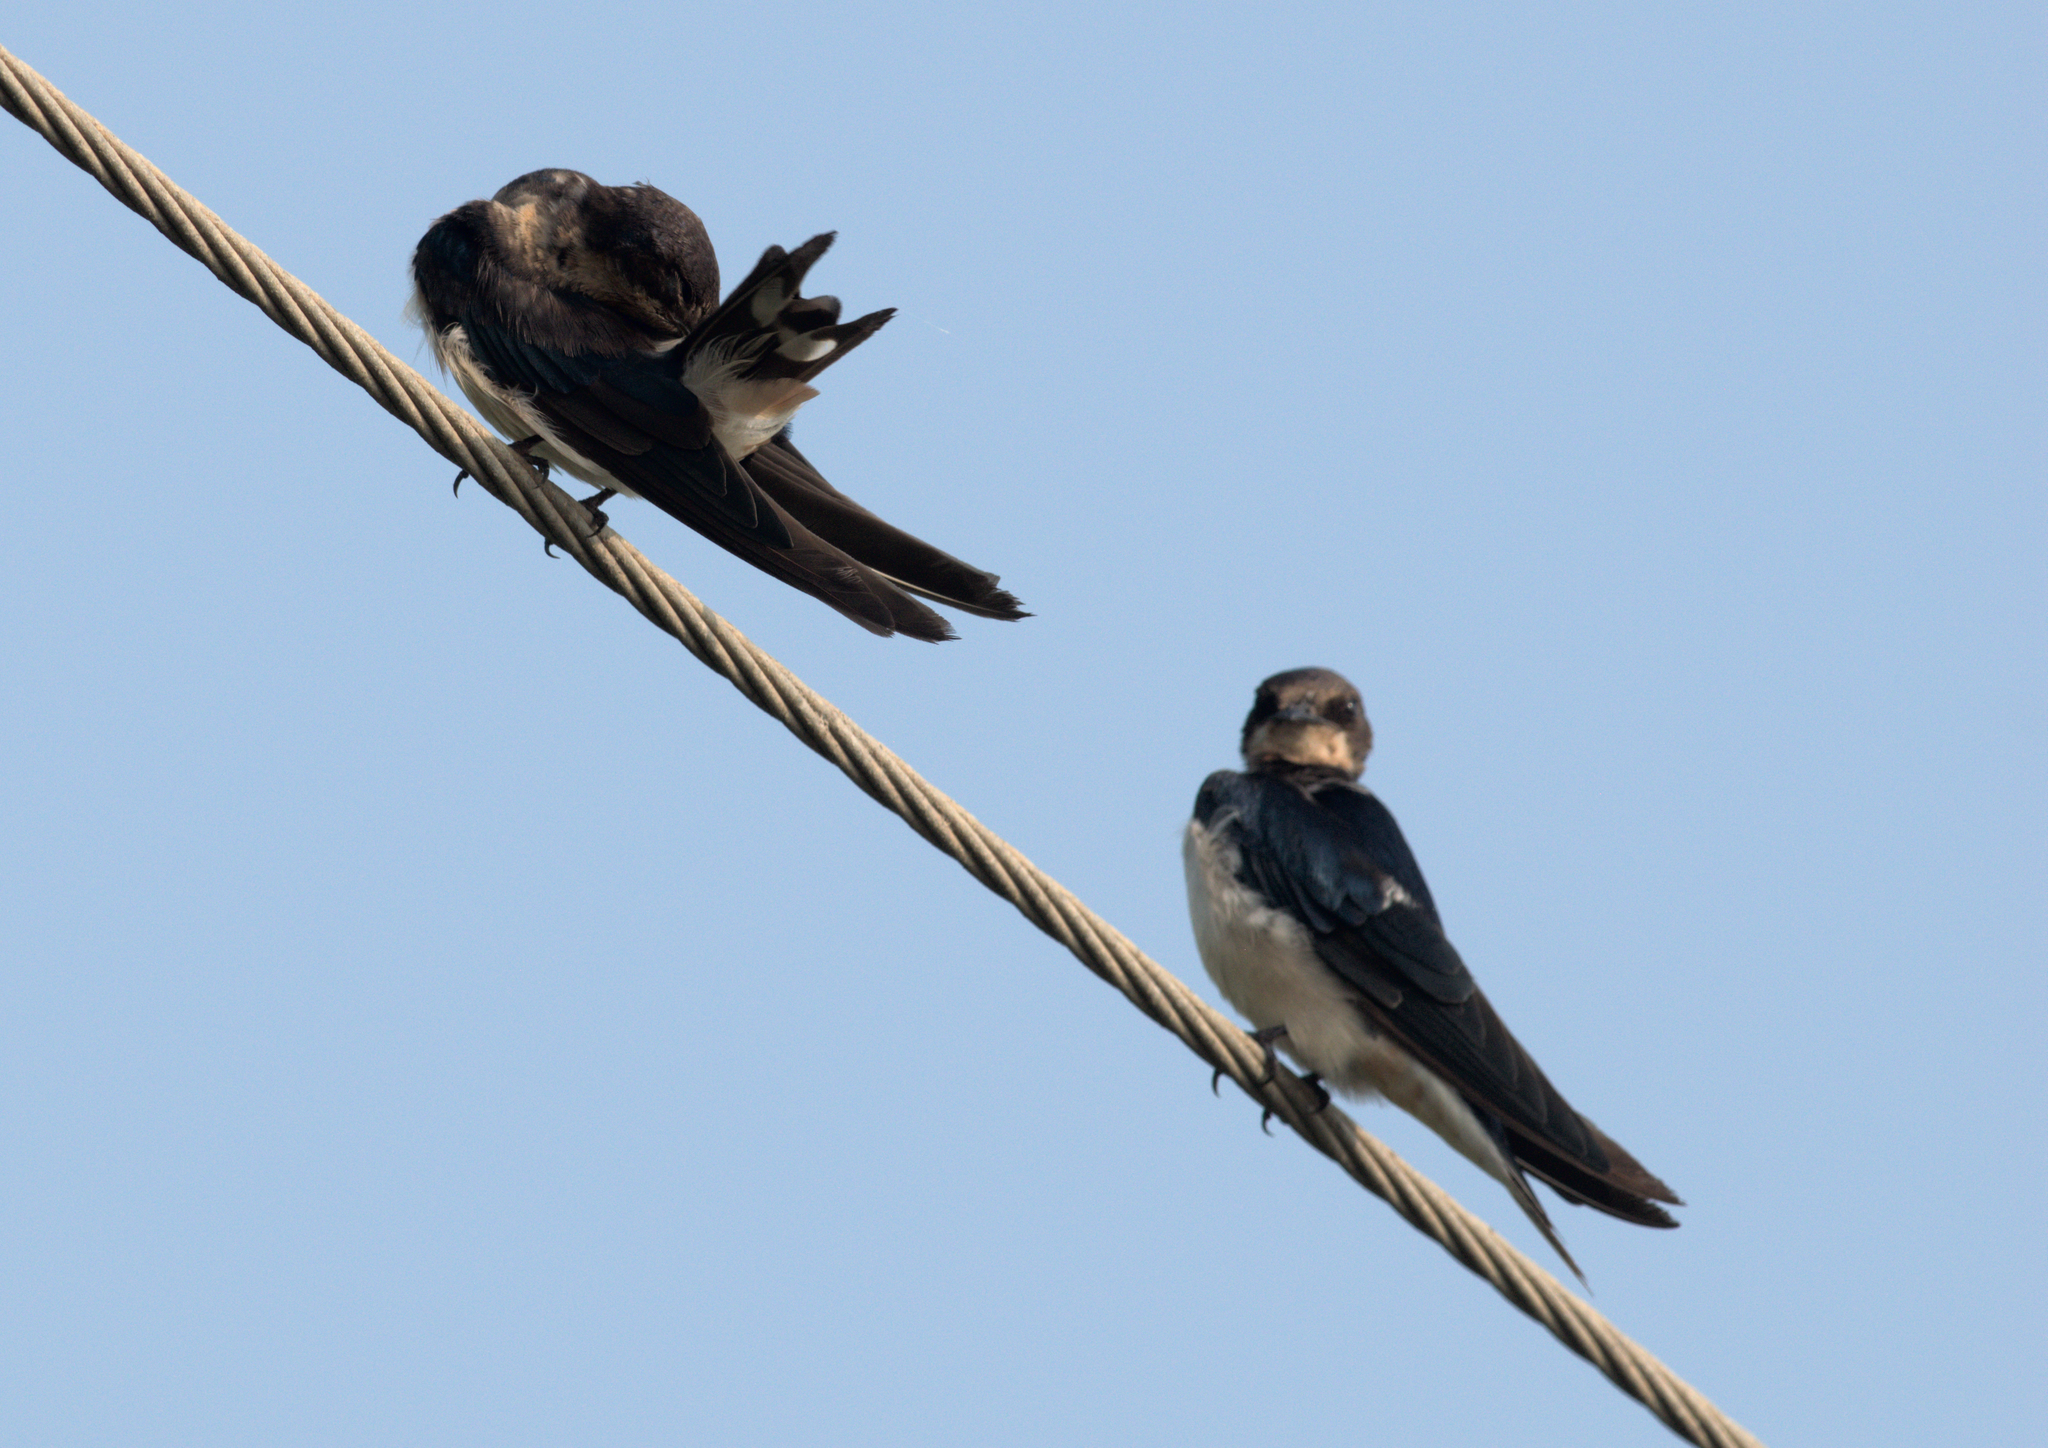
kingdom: Animalia
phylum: Chordata
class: Aves
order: Passeriformes
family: Hirundinidae
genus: Hirundo
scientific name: Hirundo rustica
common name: Barn swallow
